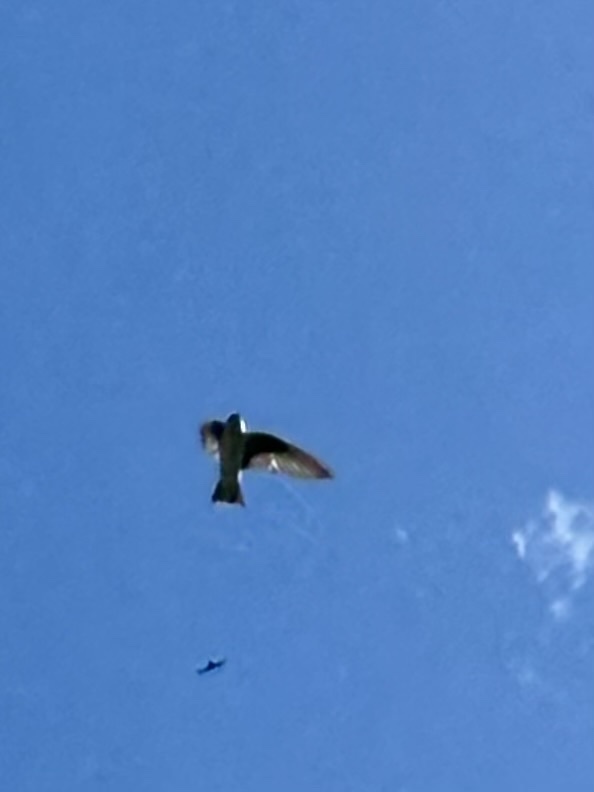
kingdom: Animalia
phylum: Chordata
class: Aves
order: Passeriformes
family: Hirundinidae
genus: Tachycineta
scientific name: Tachycineta bicolor
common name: Tree swallow
